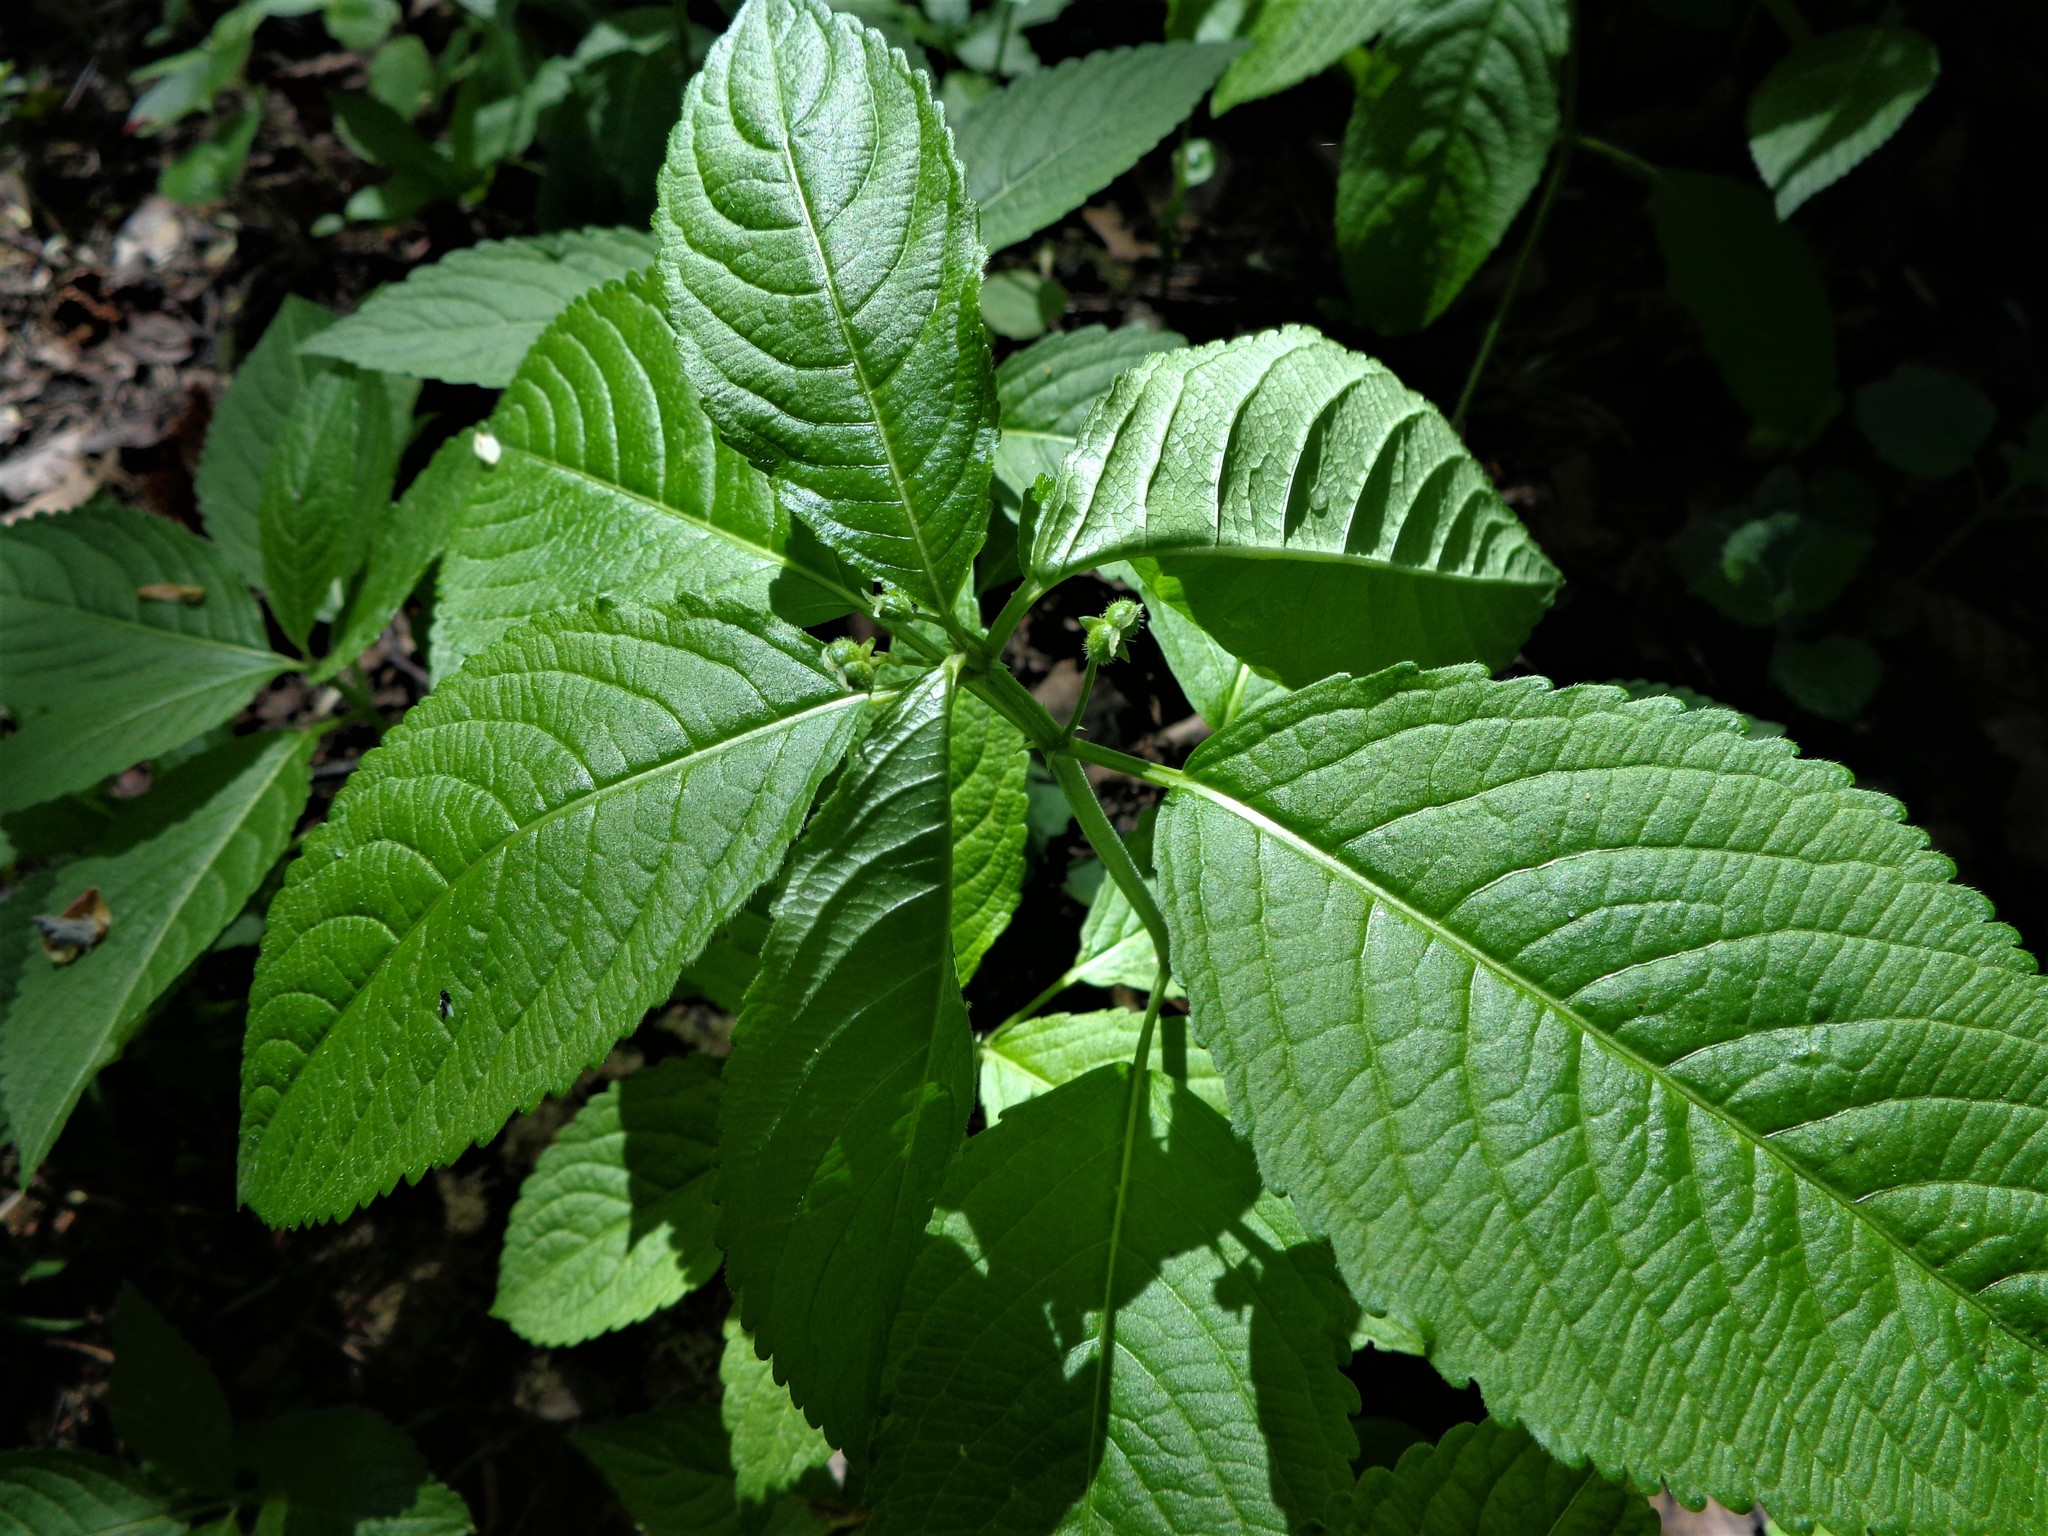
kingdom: Plantae
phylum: Tracheophyta
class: Magnoliopsida
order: Malpighiales
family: Euphorbiaceae
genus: Mercurialis
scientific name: Mercurialis perennis
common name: Dog mercury
